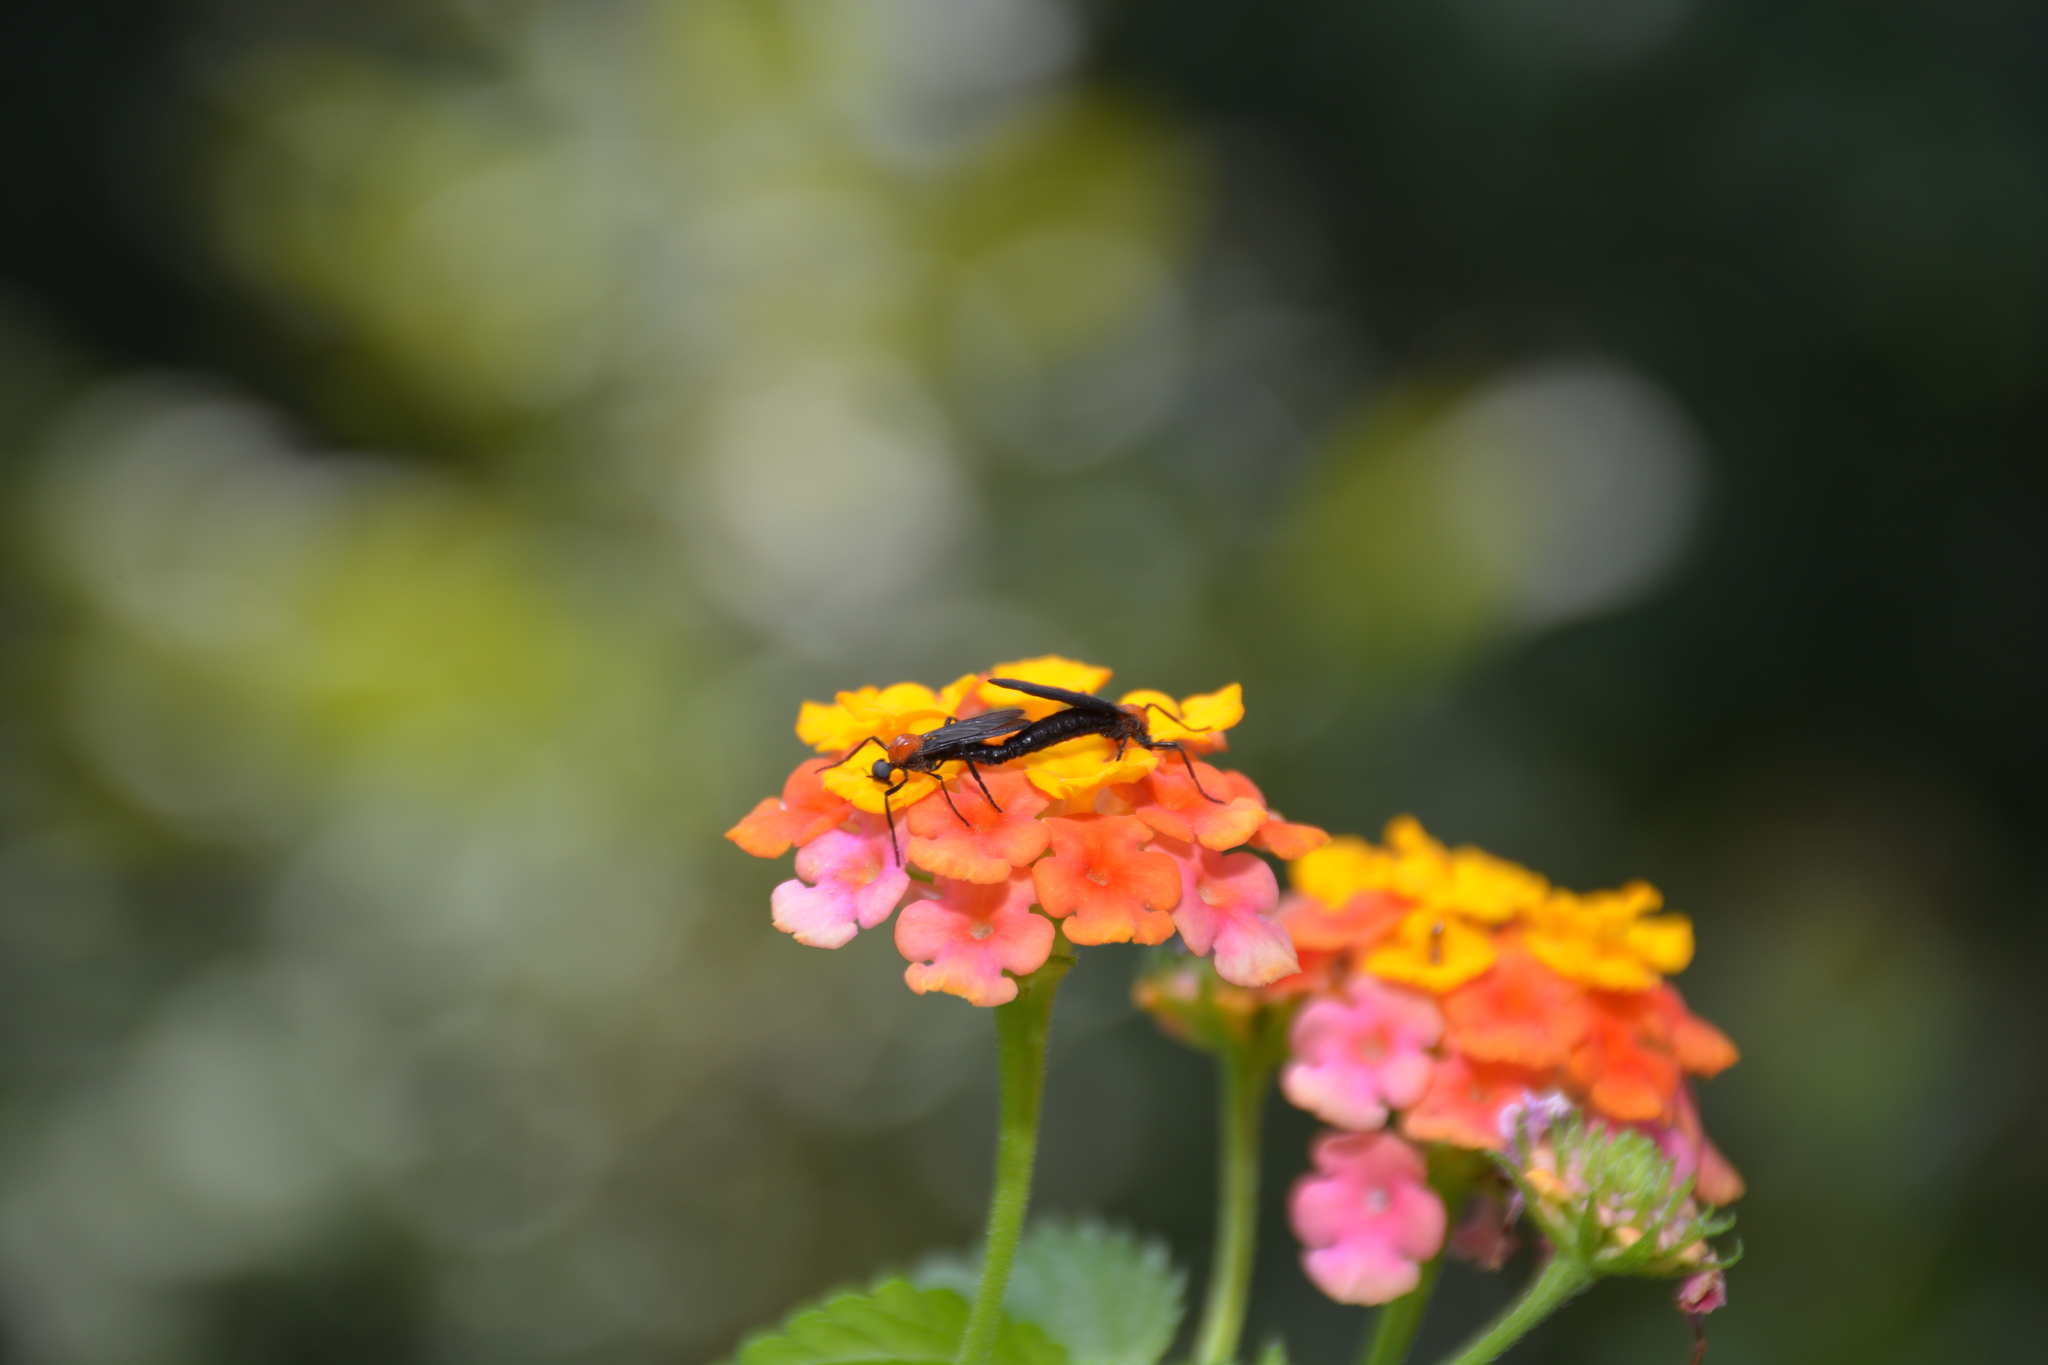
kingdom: Animalia
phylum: Arthropoda
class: Insecta
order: Diptera
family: Bibionidae
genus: Plecia
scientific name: Plecia nearctica
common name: March fly
